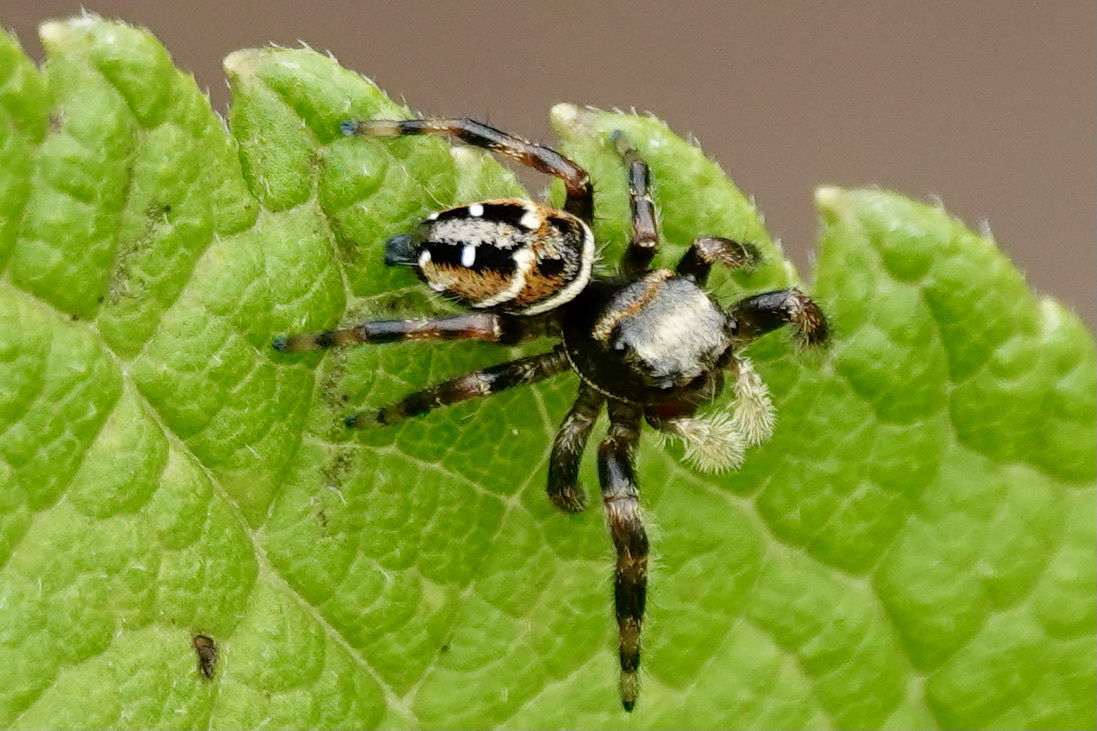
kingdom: Animalia
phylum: Arthropoda
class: Arachnida
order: Araneae
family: Salticidae
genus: Phidippus
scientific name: Phidippus clarus
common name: Brilliant jumping spider
